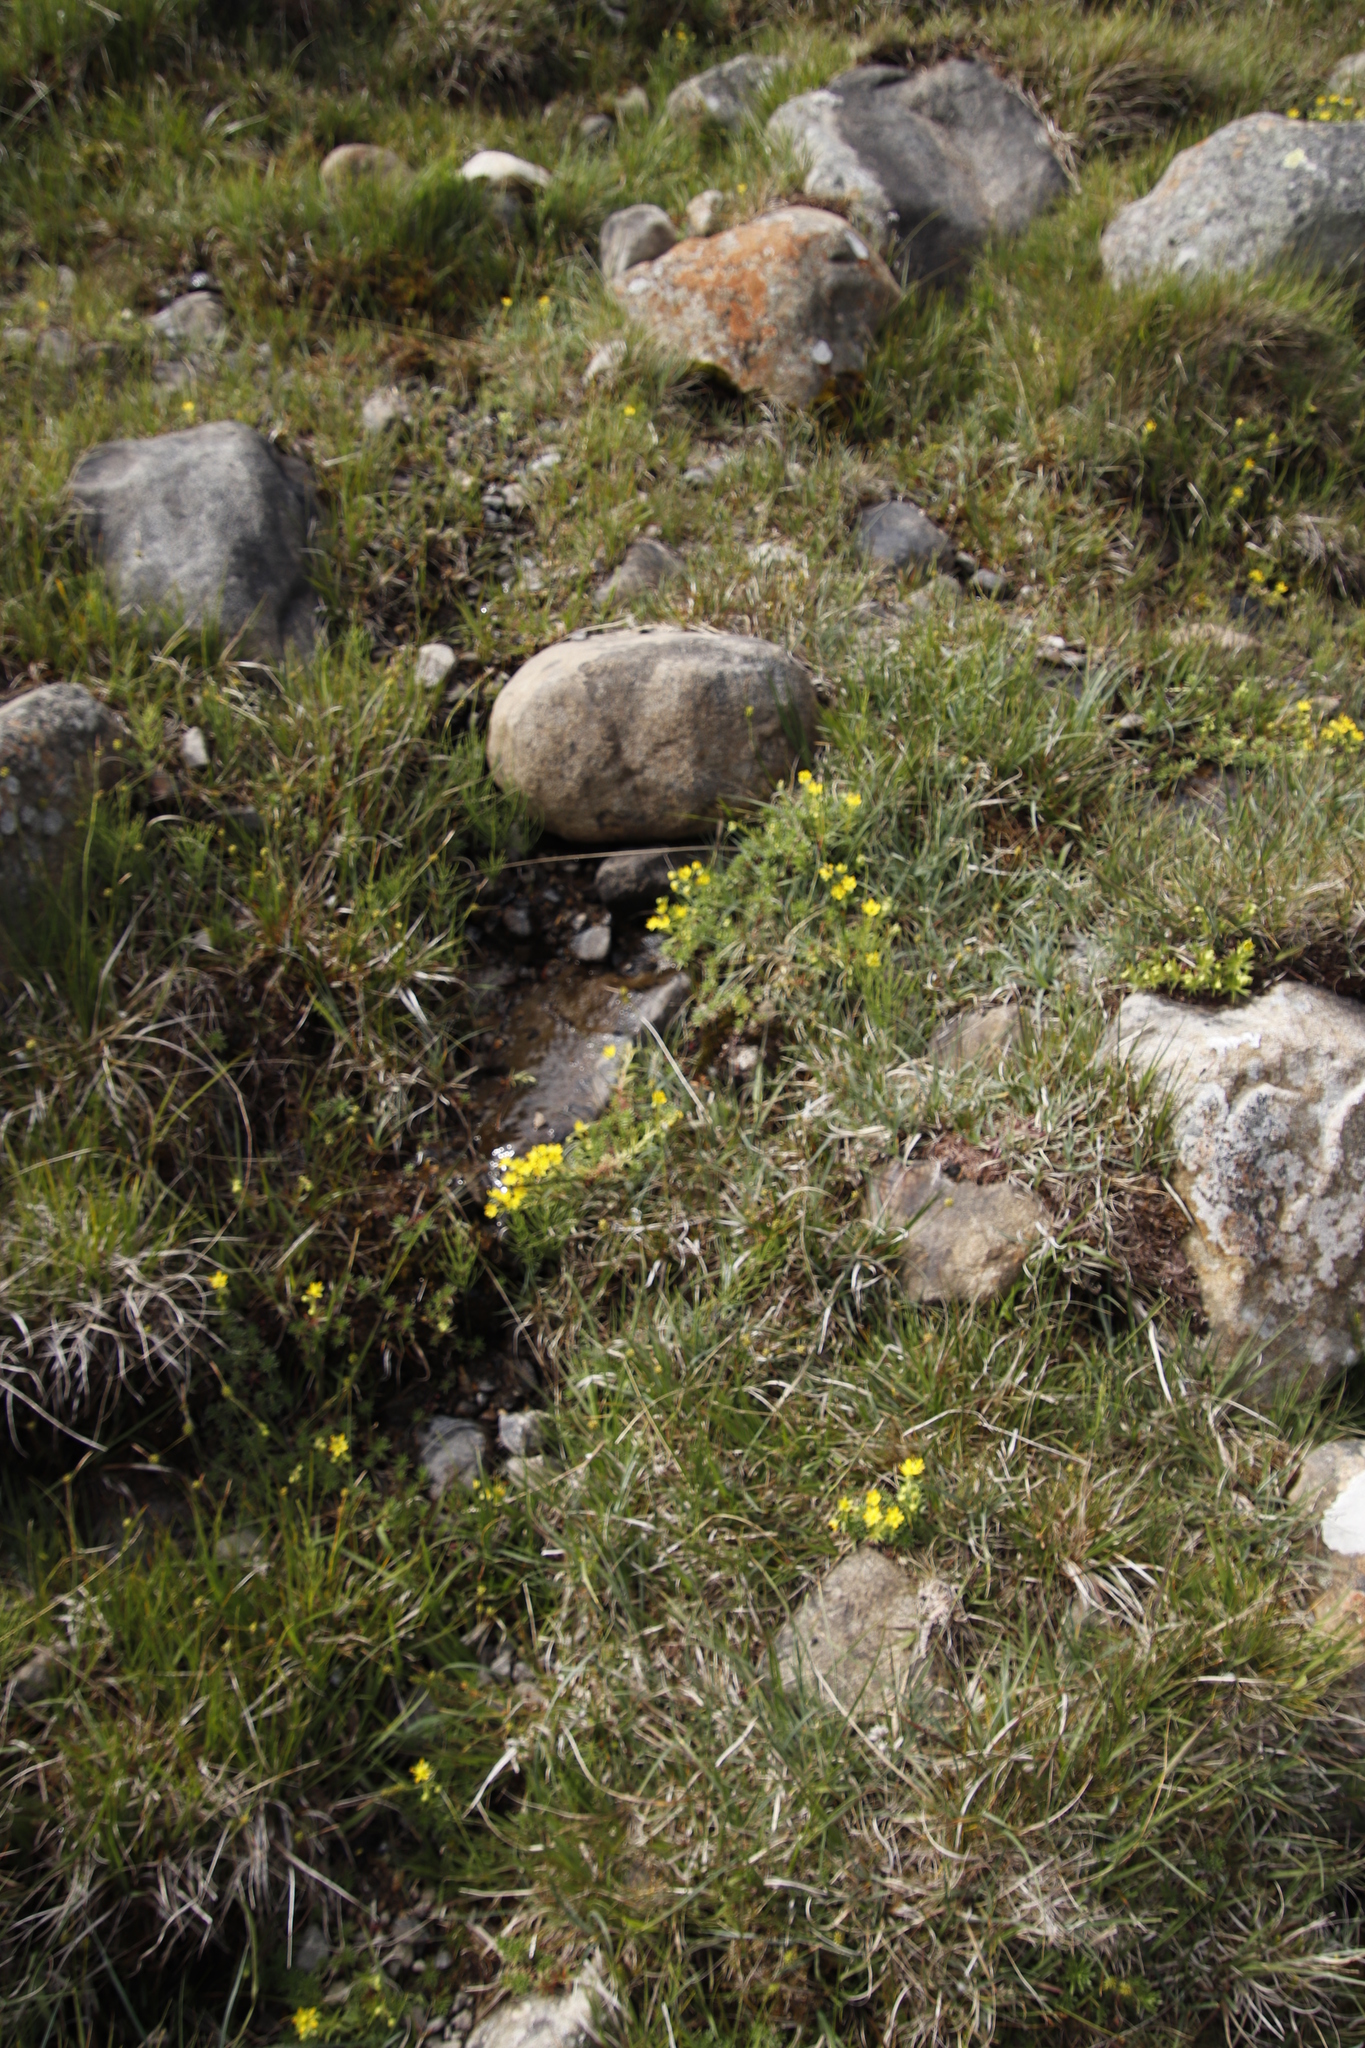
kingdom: Plantae
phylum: Tracheophyta
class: Magnoliopsida
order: Saxifragales
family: Saxifragaceae
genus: Saxifraga
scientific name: Saxifraga aizoides
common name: Yellow mountain saxifrage
